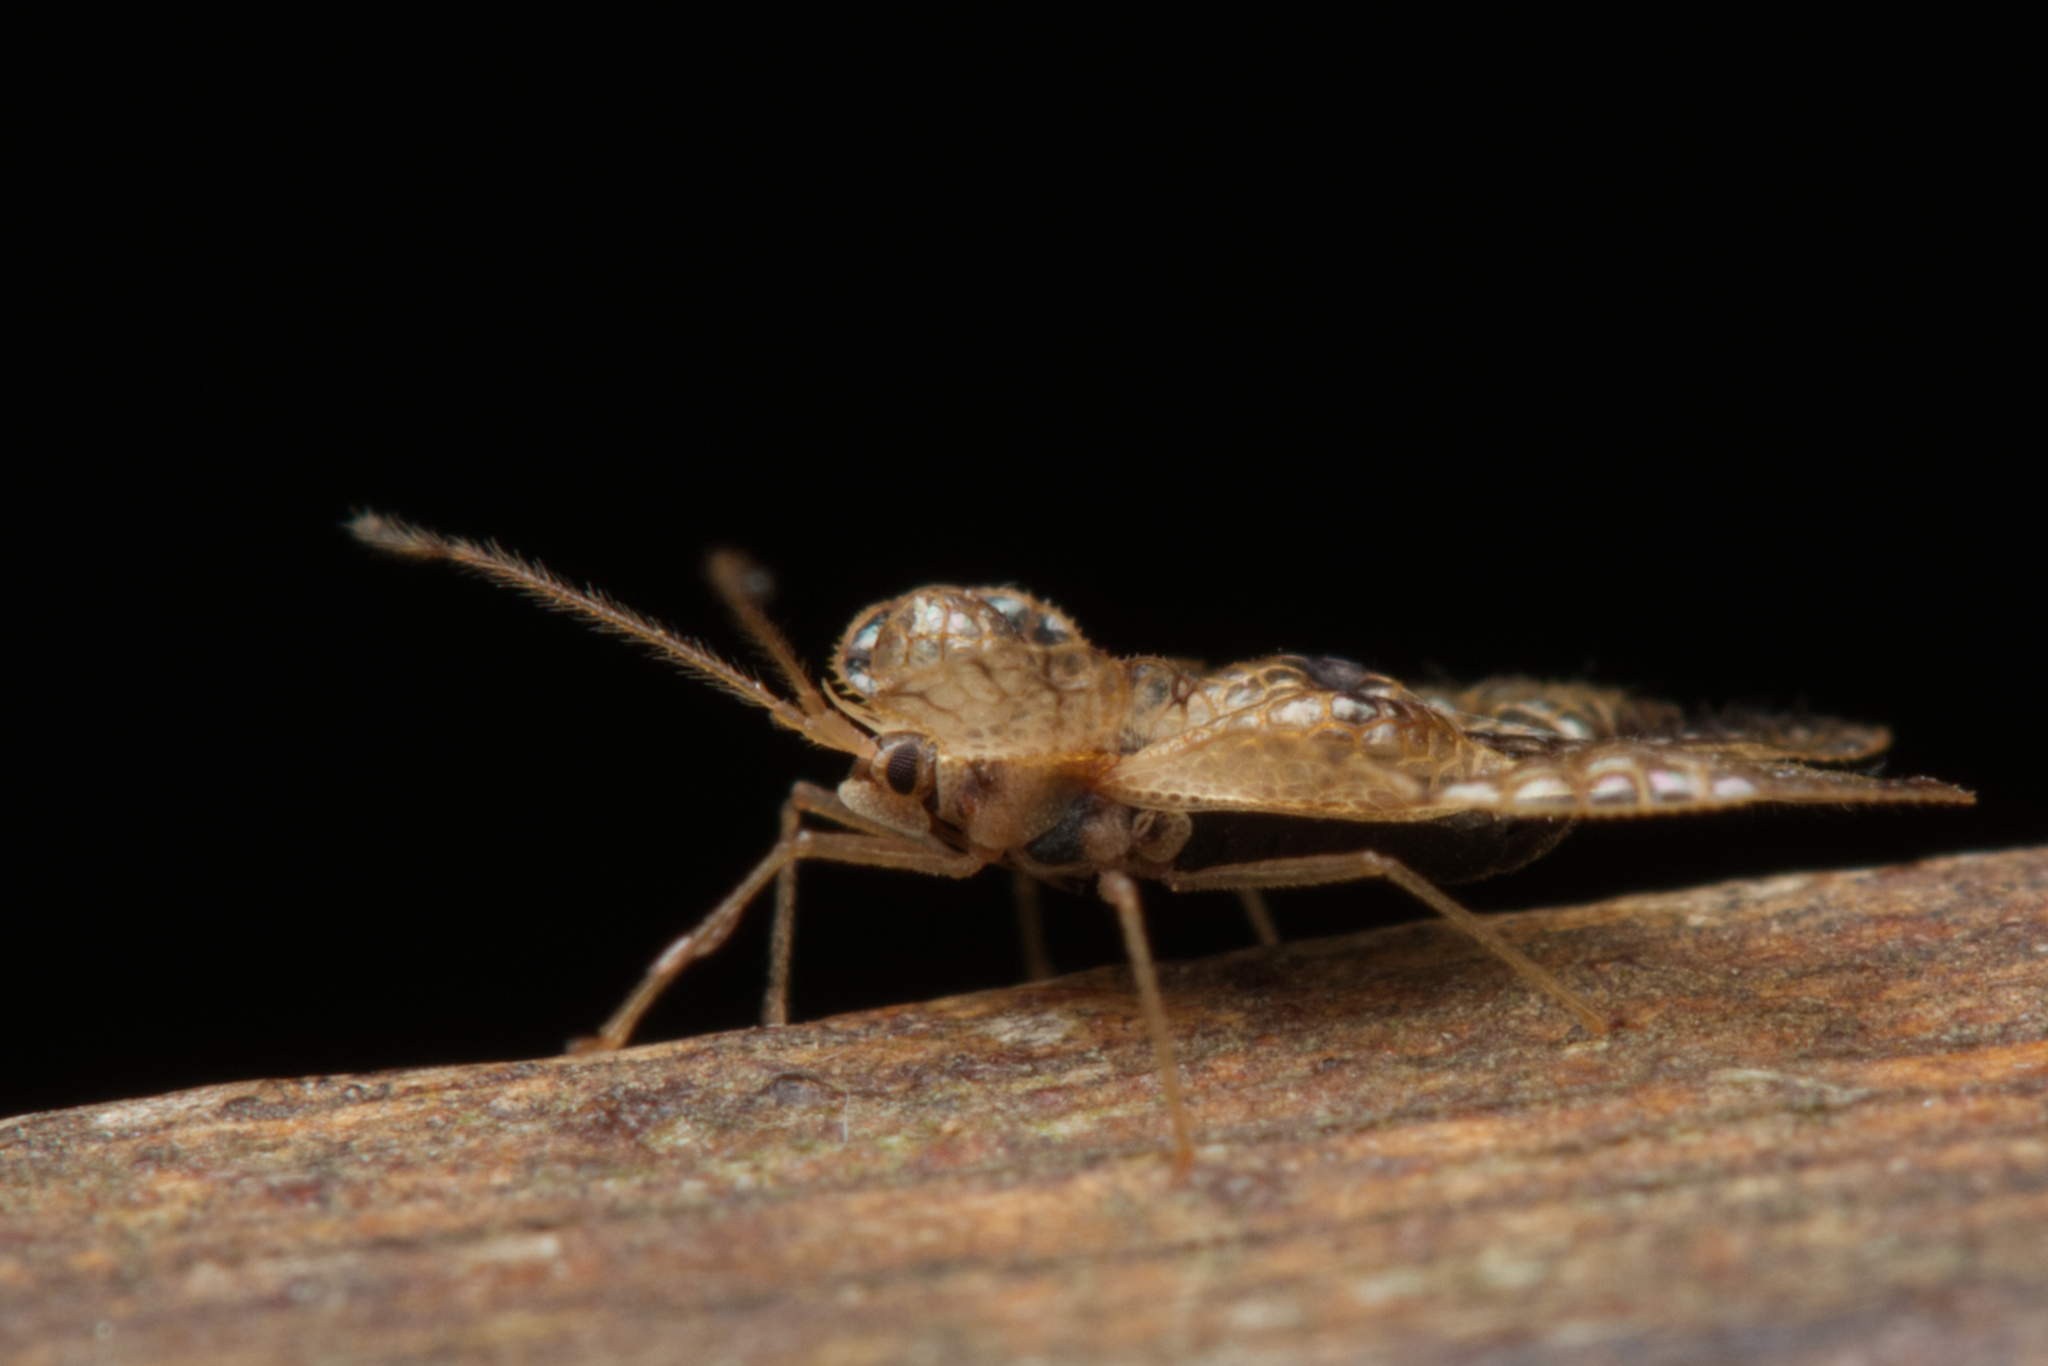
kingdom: Animalia
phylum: Arthropoda
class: Insecta
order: Hemiptera
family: Tingidae
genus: Lepturga
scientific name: Lepturga magnifica
